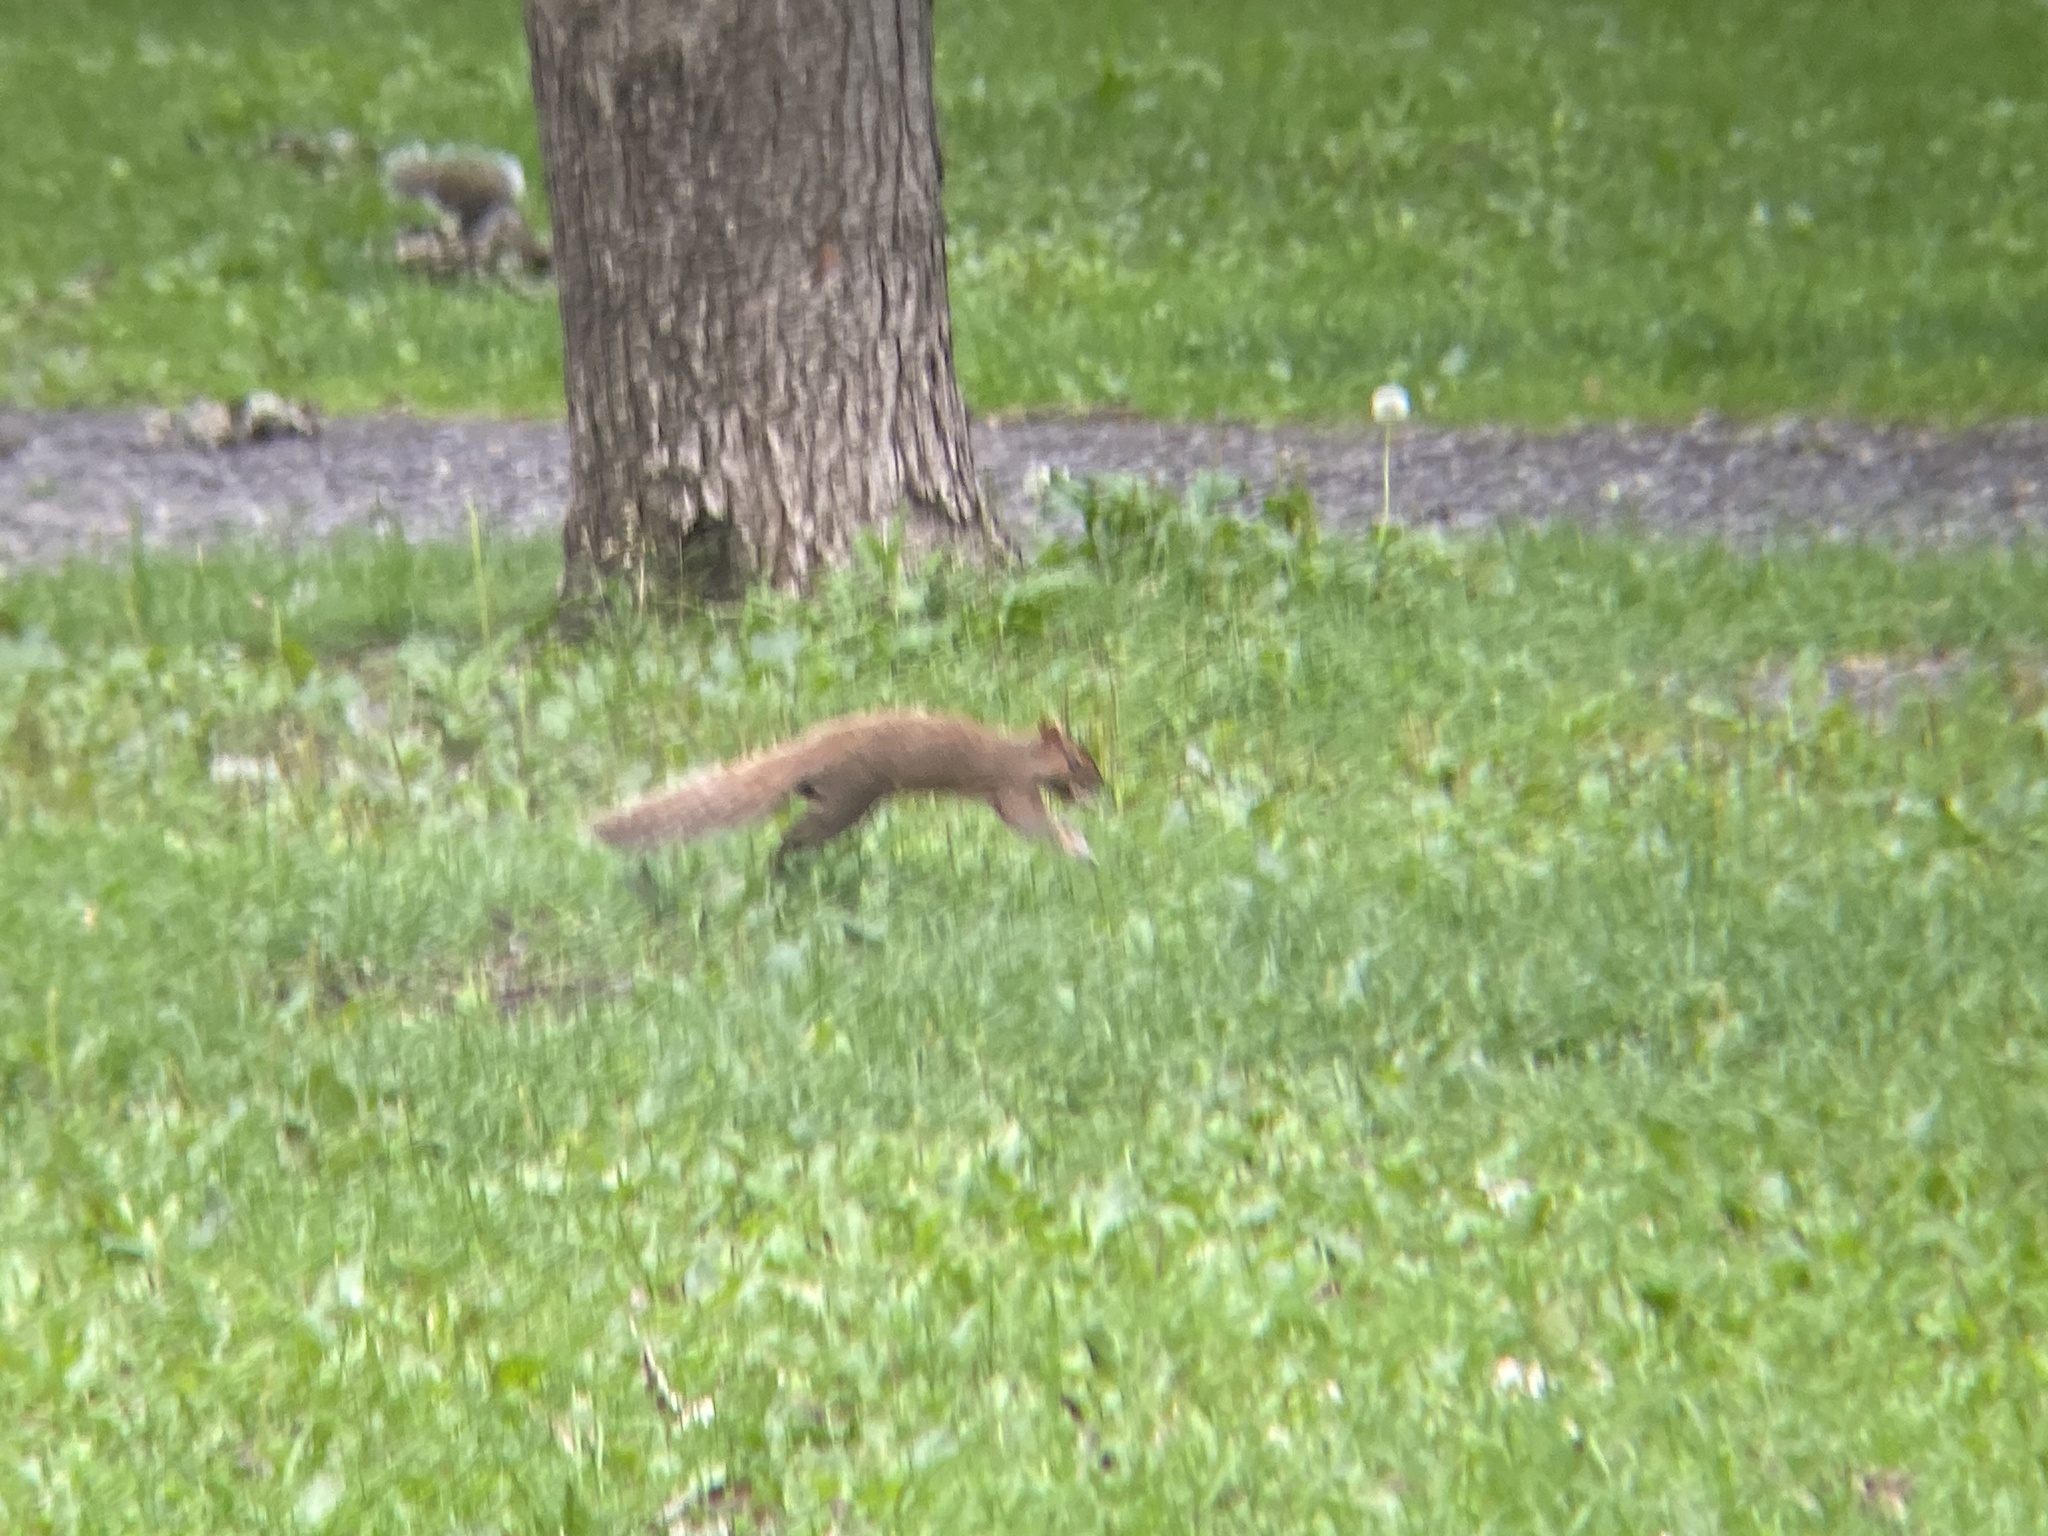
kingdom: Animalia
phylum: Chordata
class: Mammalia
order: Rodentia
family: Sciuridae
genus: Sciurus
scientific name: Sciurus carolinensis
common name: Eastern gray squirrel
